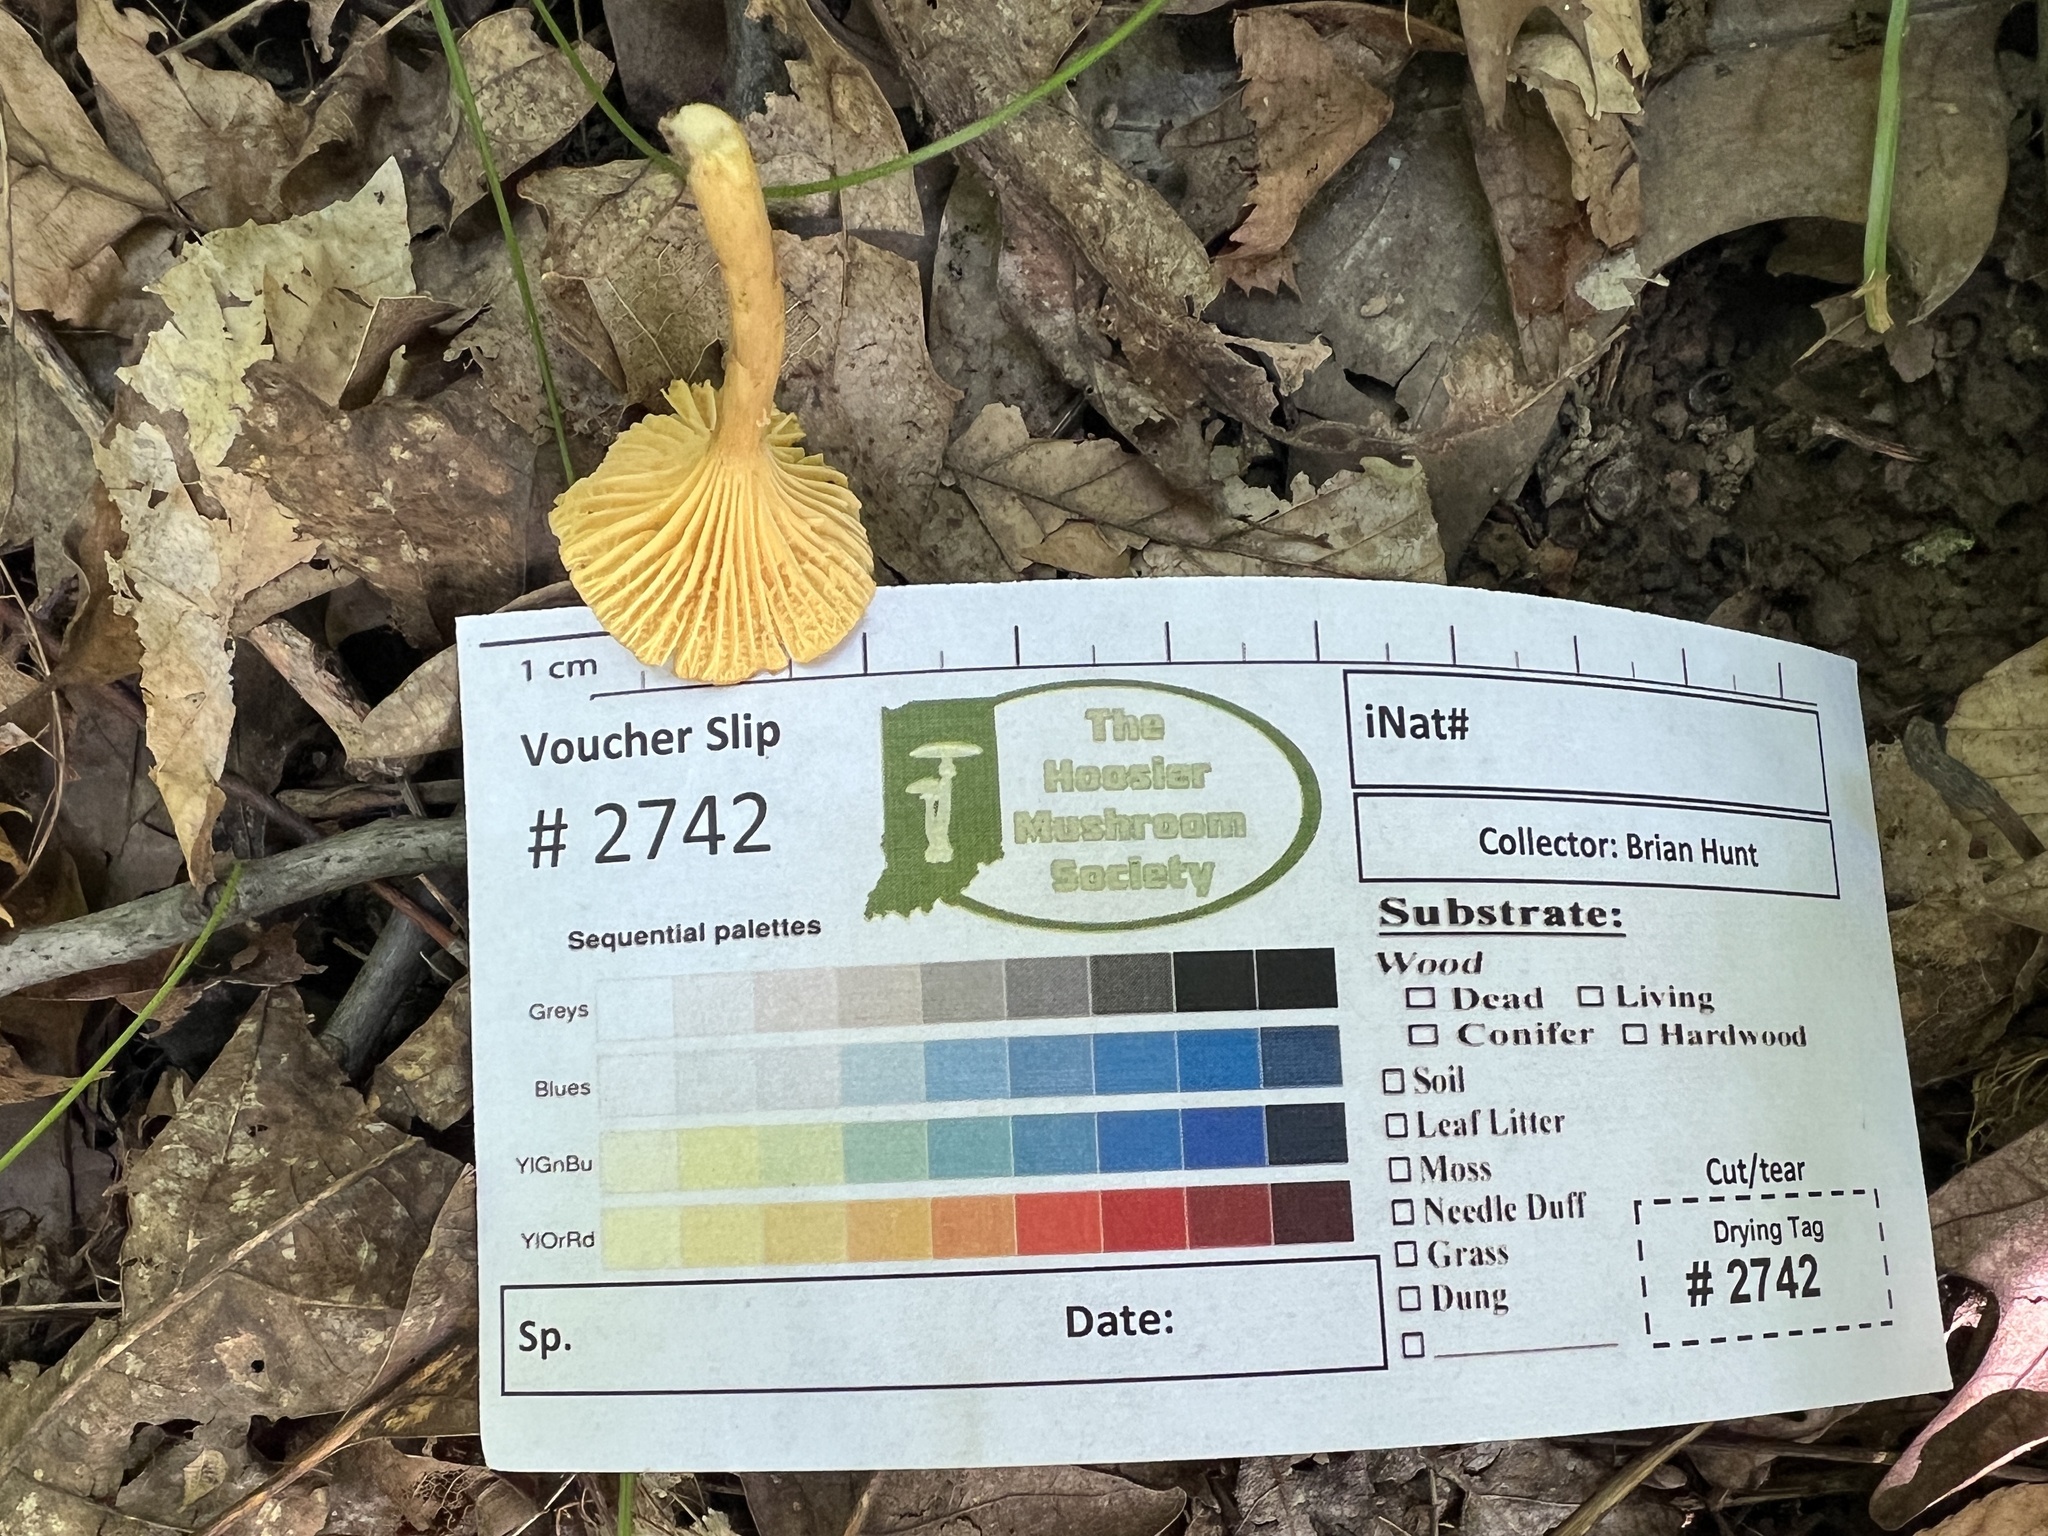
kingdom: Fungi
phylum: Basidiomycota
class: Agaricomycetes
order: Cantharellales
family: Hydnaceae
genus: Cantharellus
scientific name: Cantharellus appalachiensis
